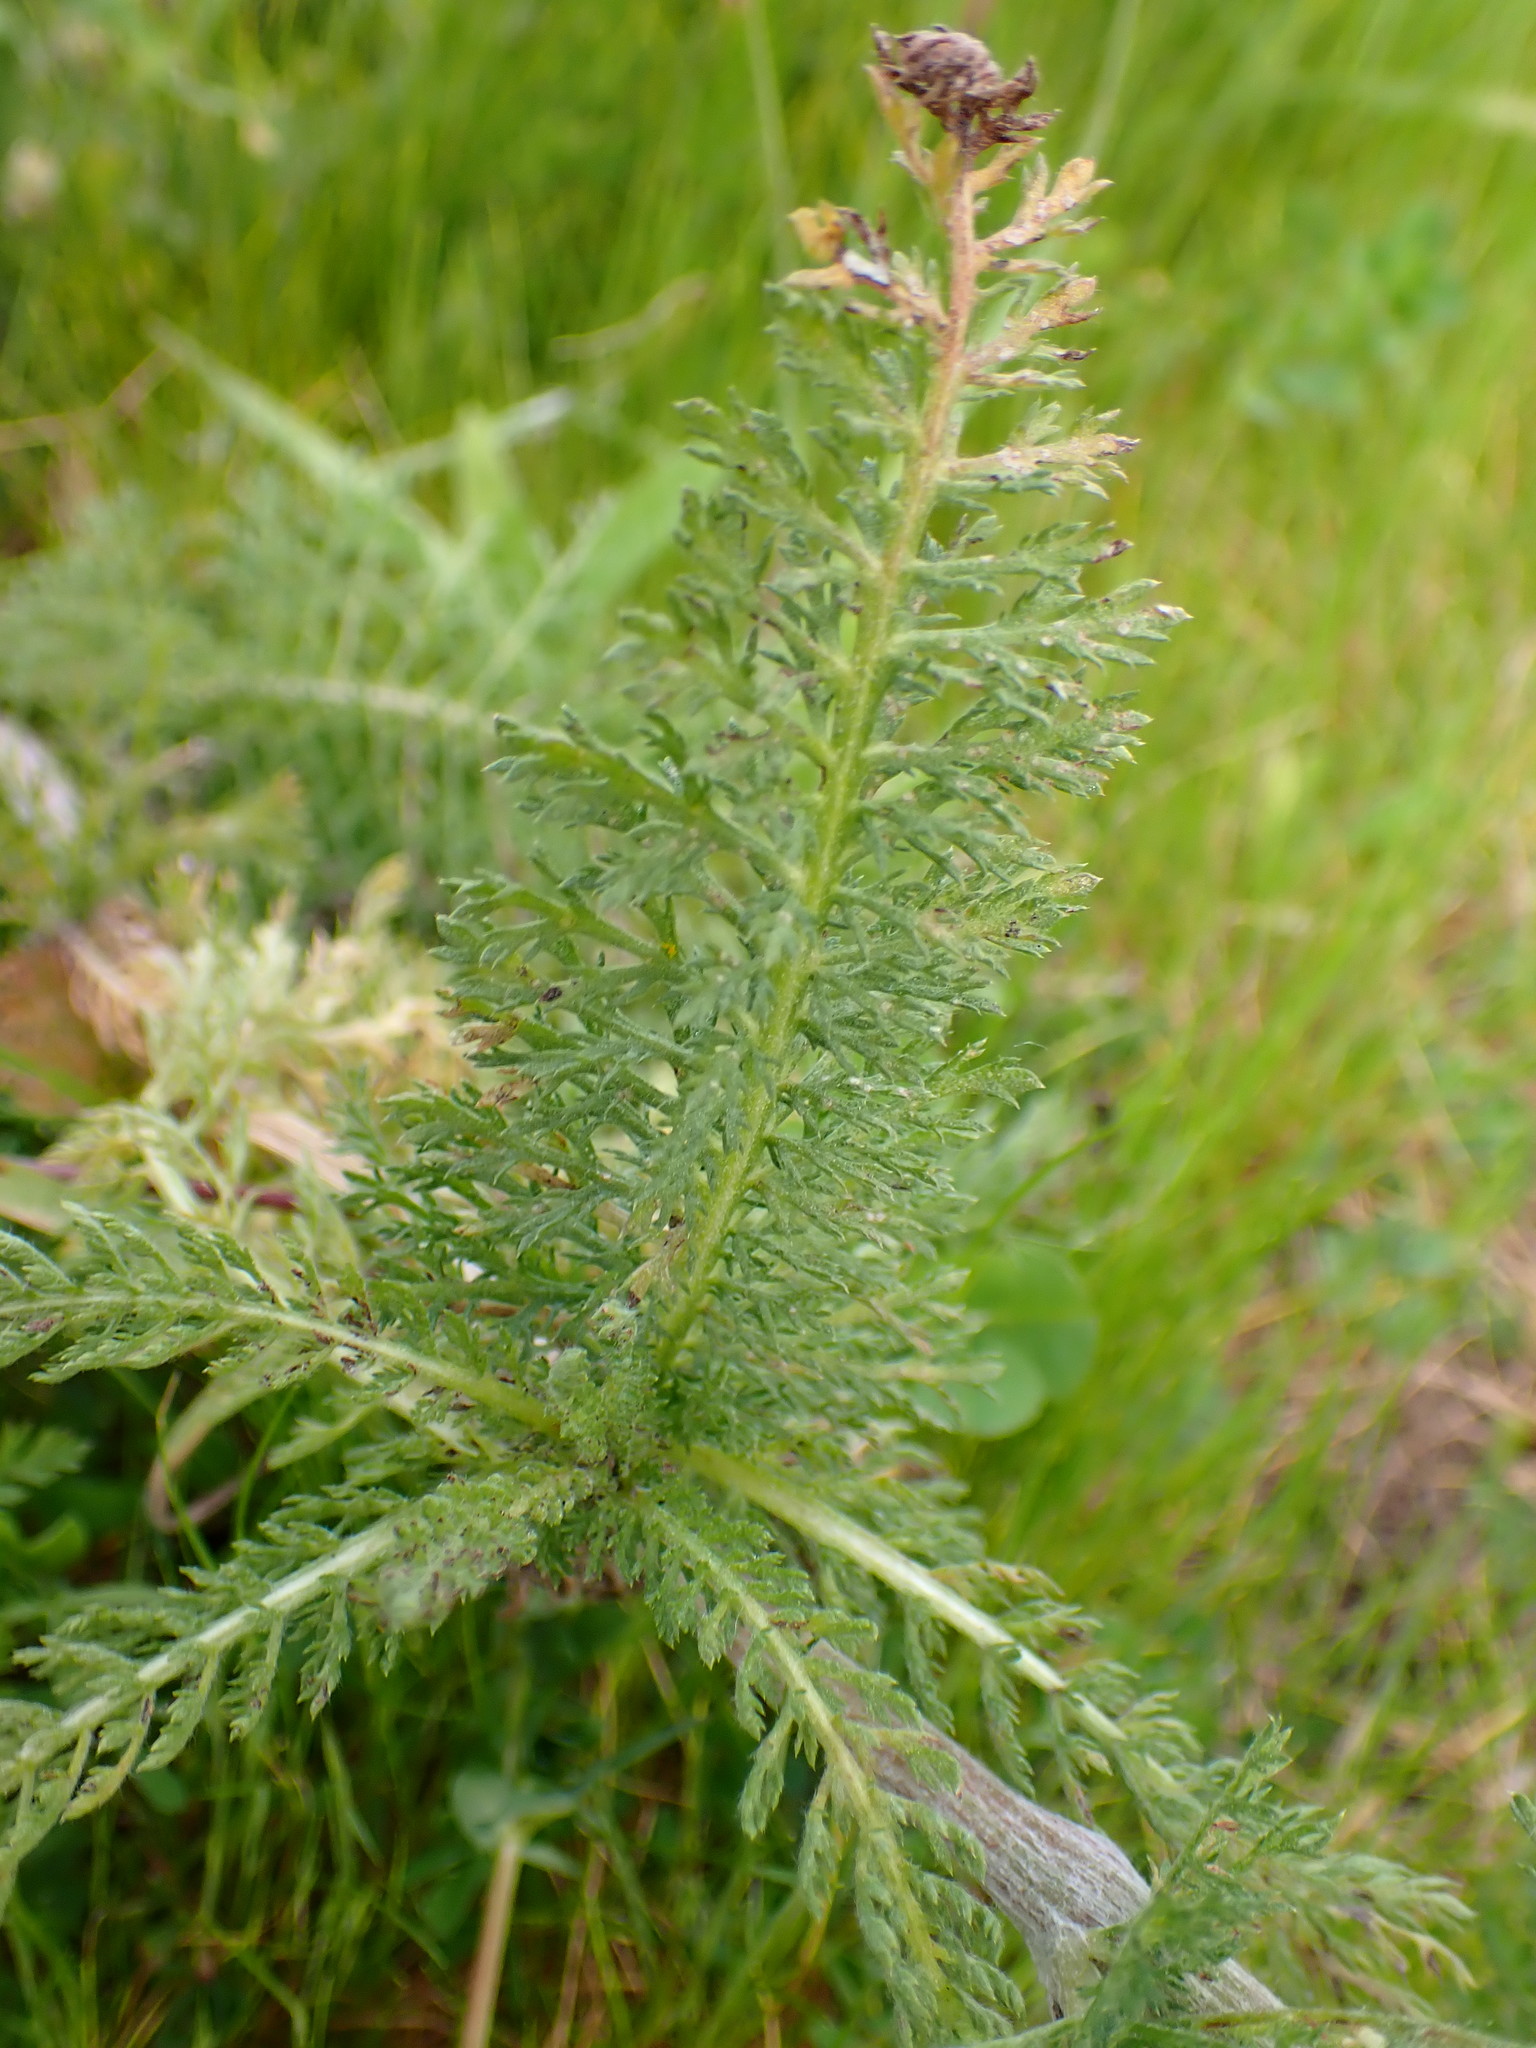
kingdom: Plantae
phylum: Tracheophyta
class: Magnoliopsida
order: Asterales
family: Asteraceae
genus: Achillea
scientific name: Achillea millefolium
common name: Yarrow
